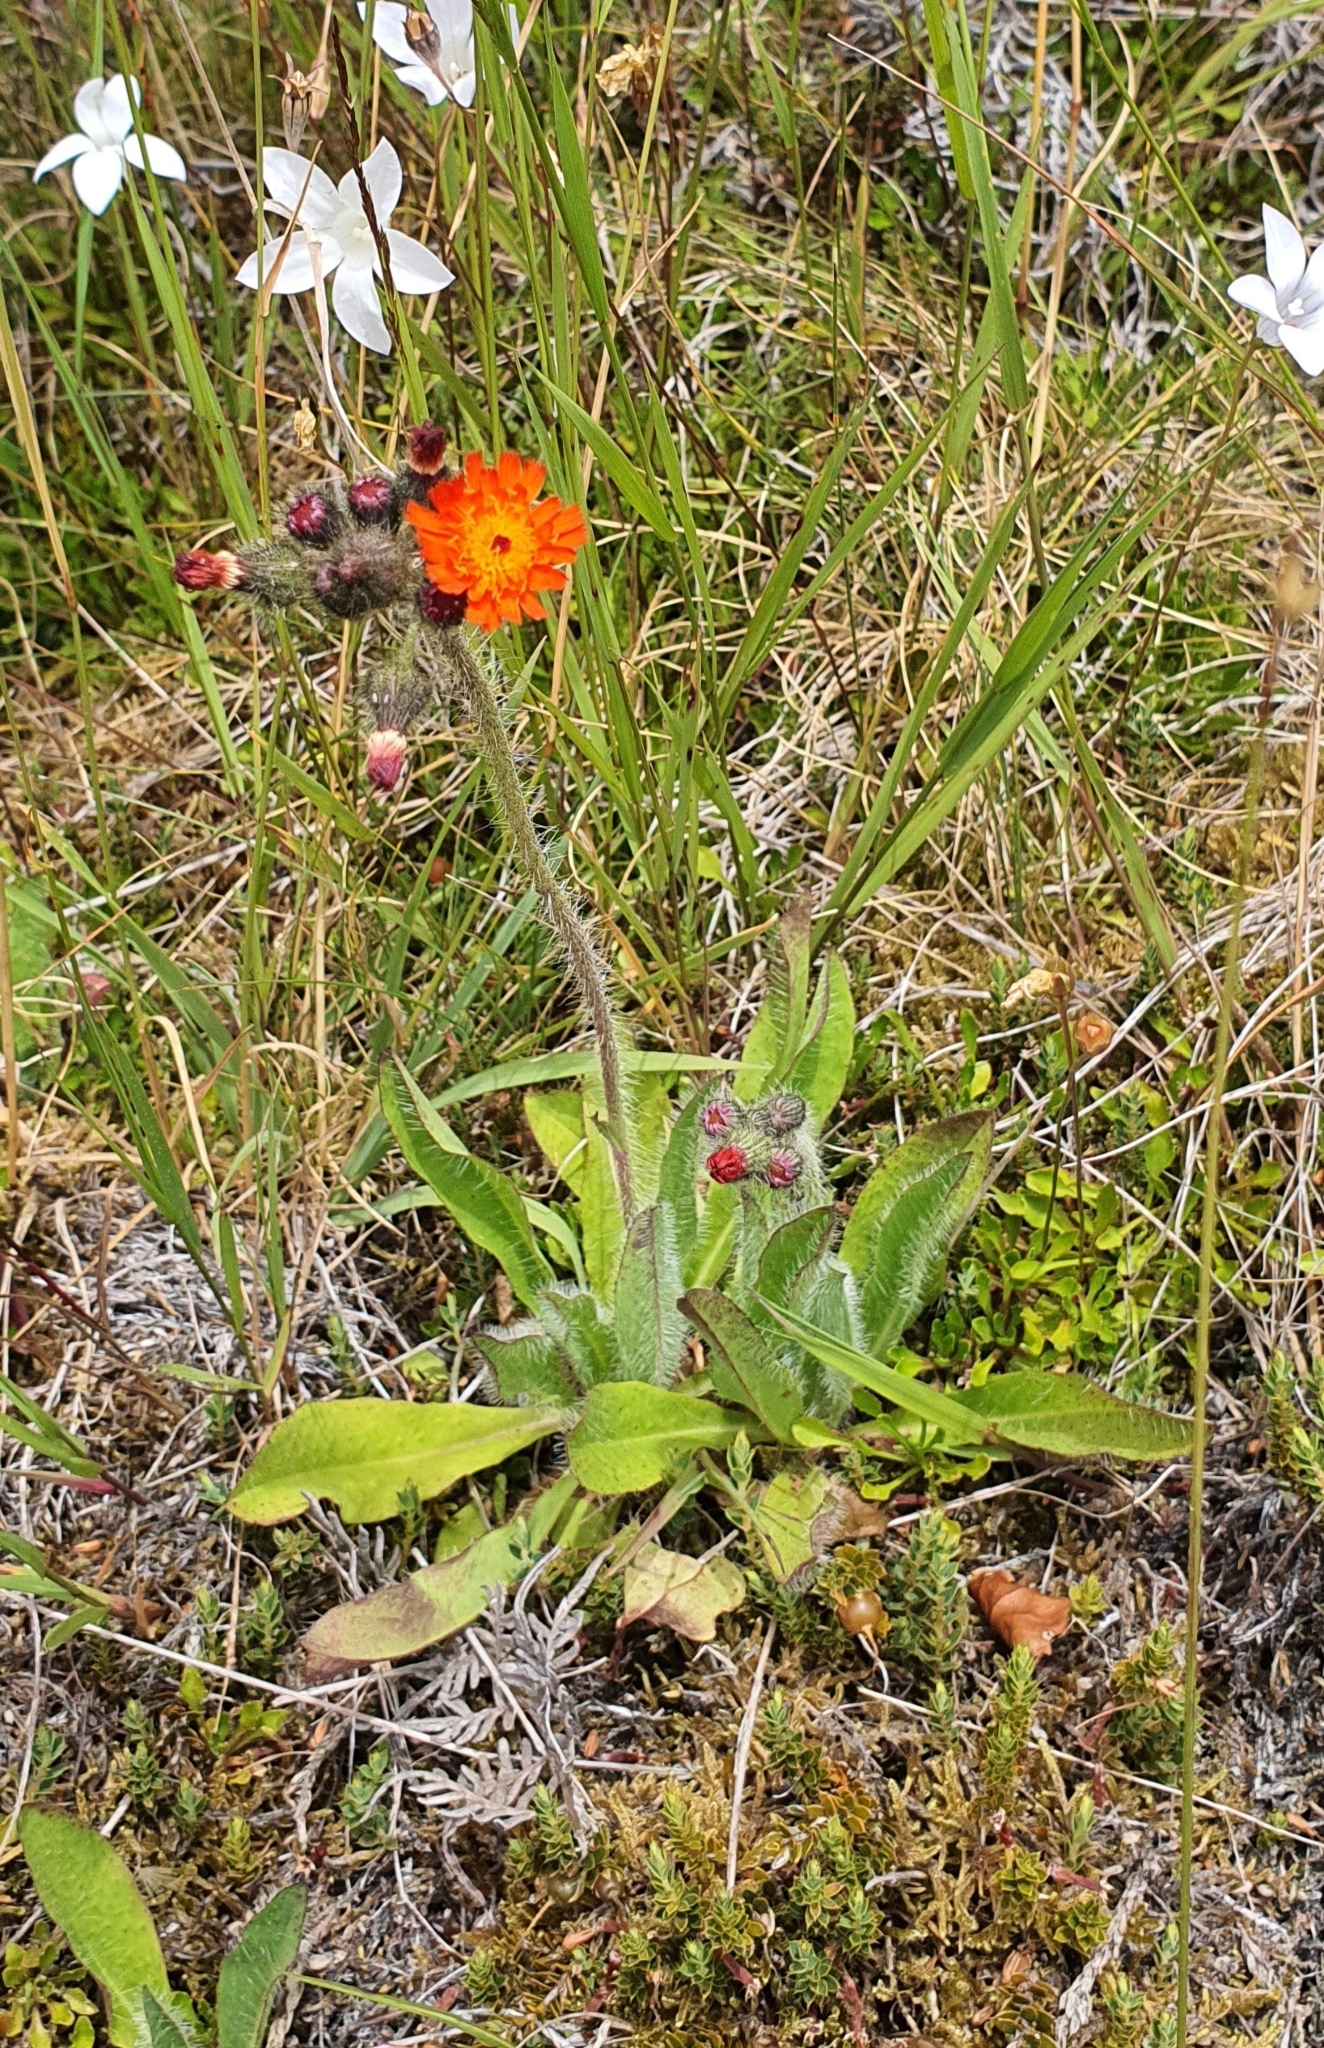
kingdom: Plantae
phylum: Tracheophyta
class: Magnoliopsida
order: Asterales
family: Asteraceae
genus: Pilosella
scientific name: Pilosella aurantiaca
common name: Fox-and-cubs
